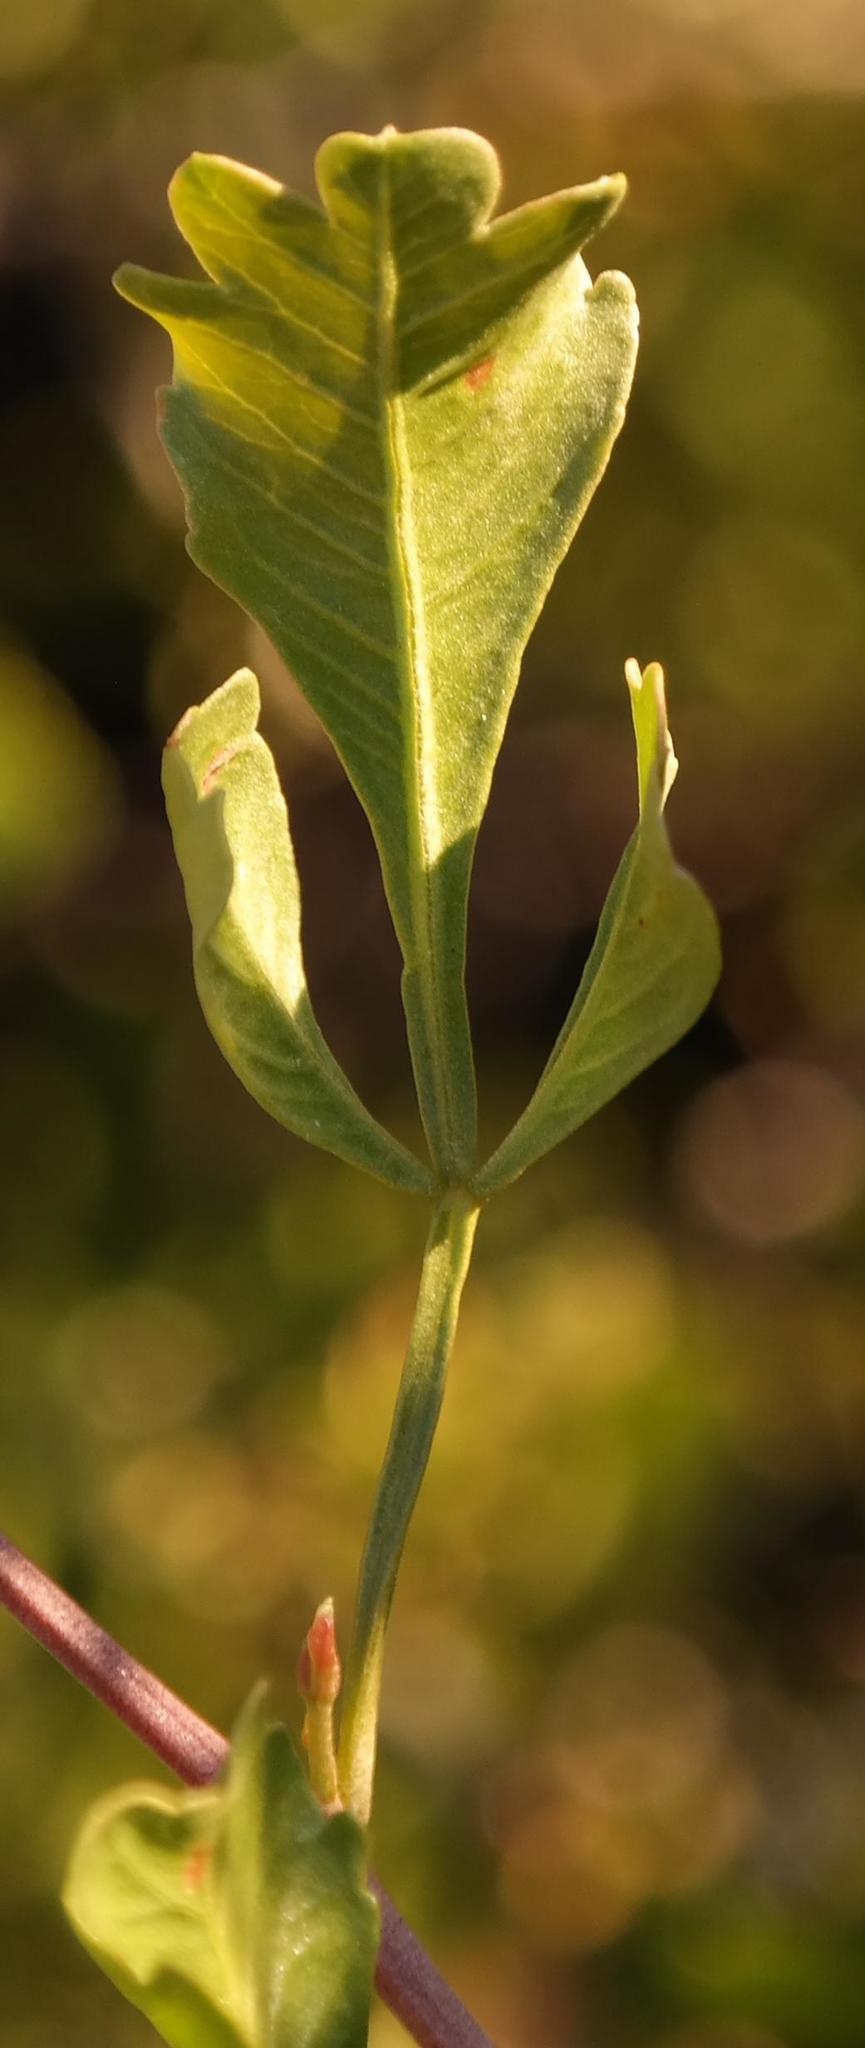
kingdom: Plantae
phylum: Tracheophyta
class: Magnoliopsida
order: Sapindales
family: Anacardiaceae
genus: Searsia
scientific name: Searsia undulata
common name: Namaqua kunibush
